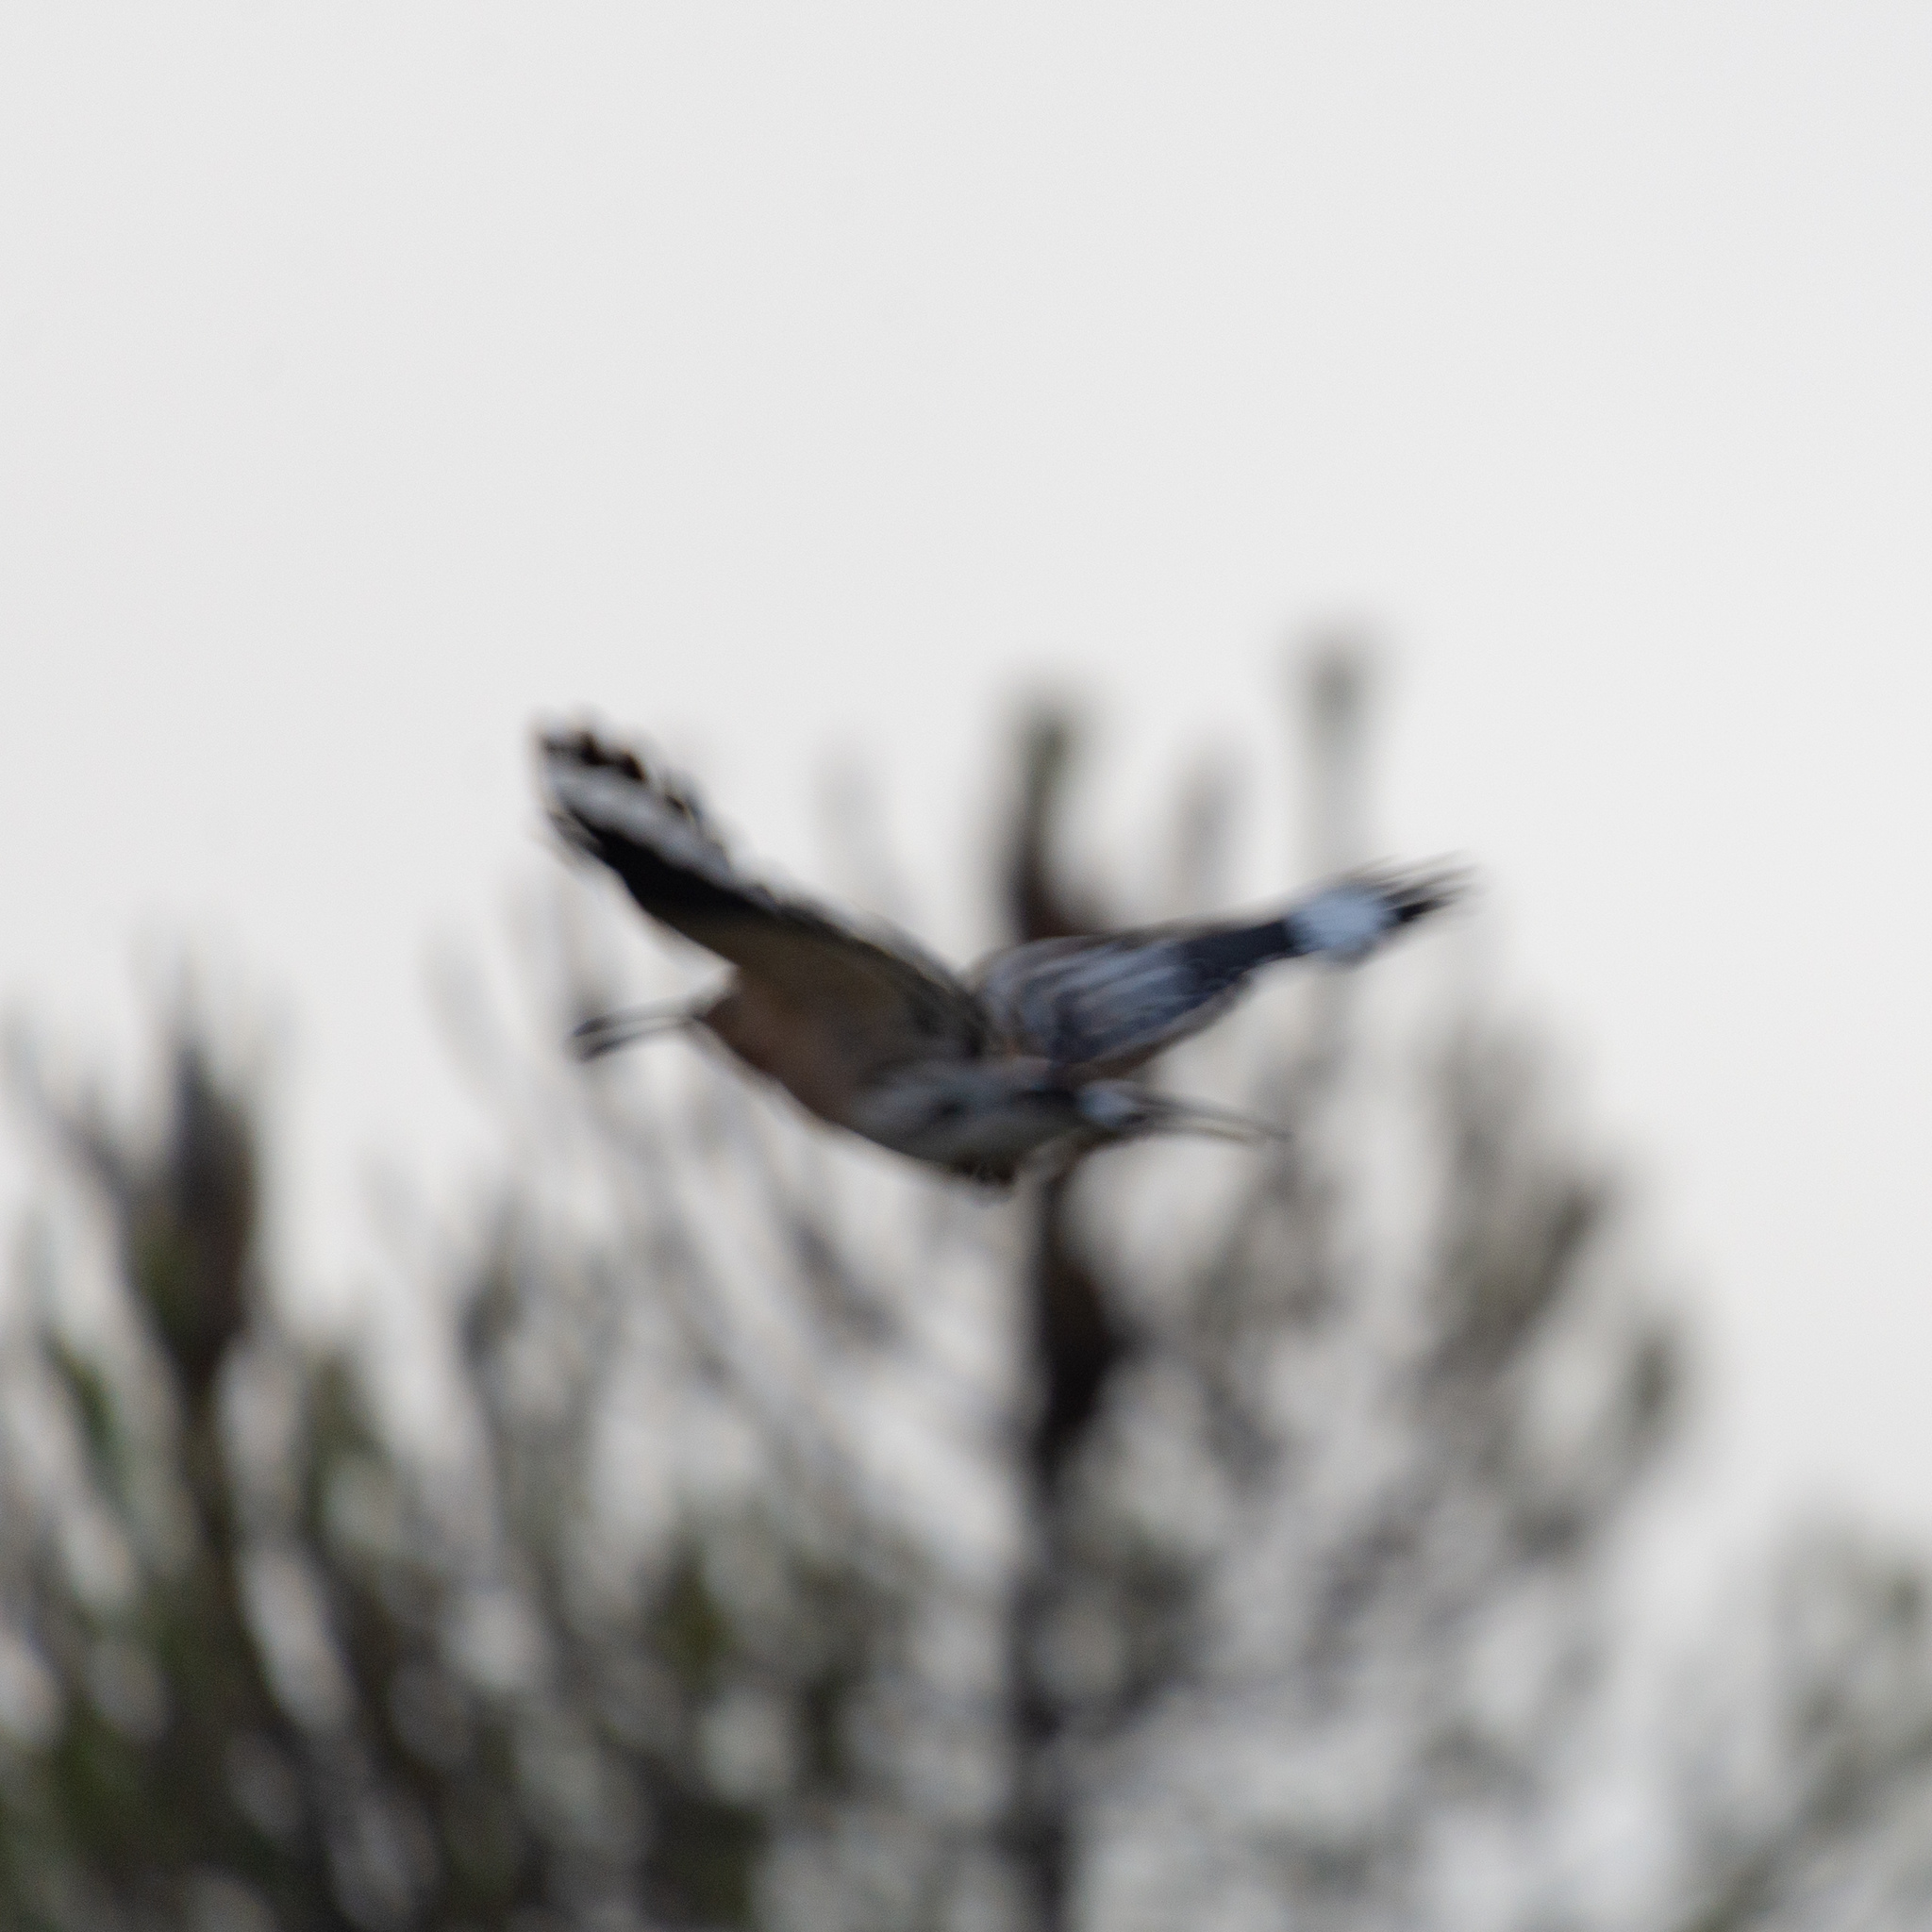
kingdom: Animalia
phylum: Chordata
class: Aves
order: Bucerotiformes
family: Upupidae
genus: Upupa
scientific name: Upupa epops
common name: Eurasian hoopoe
